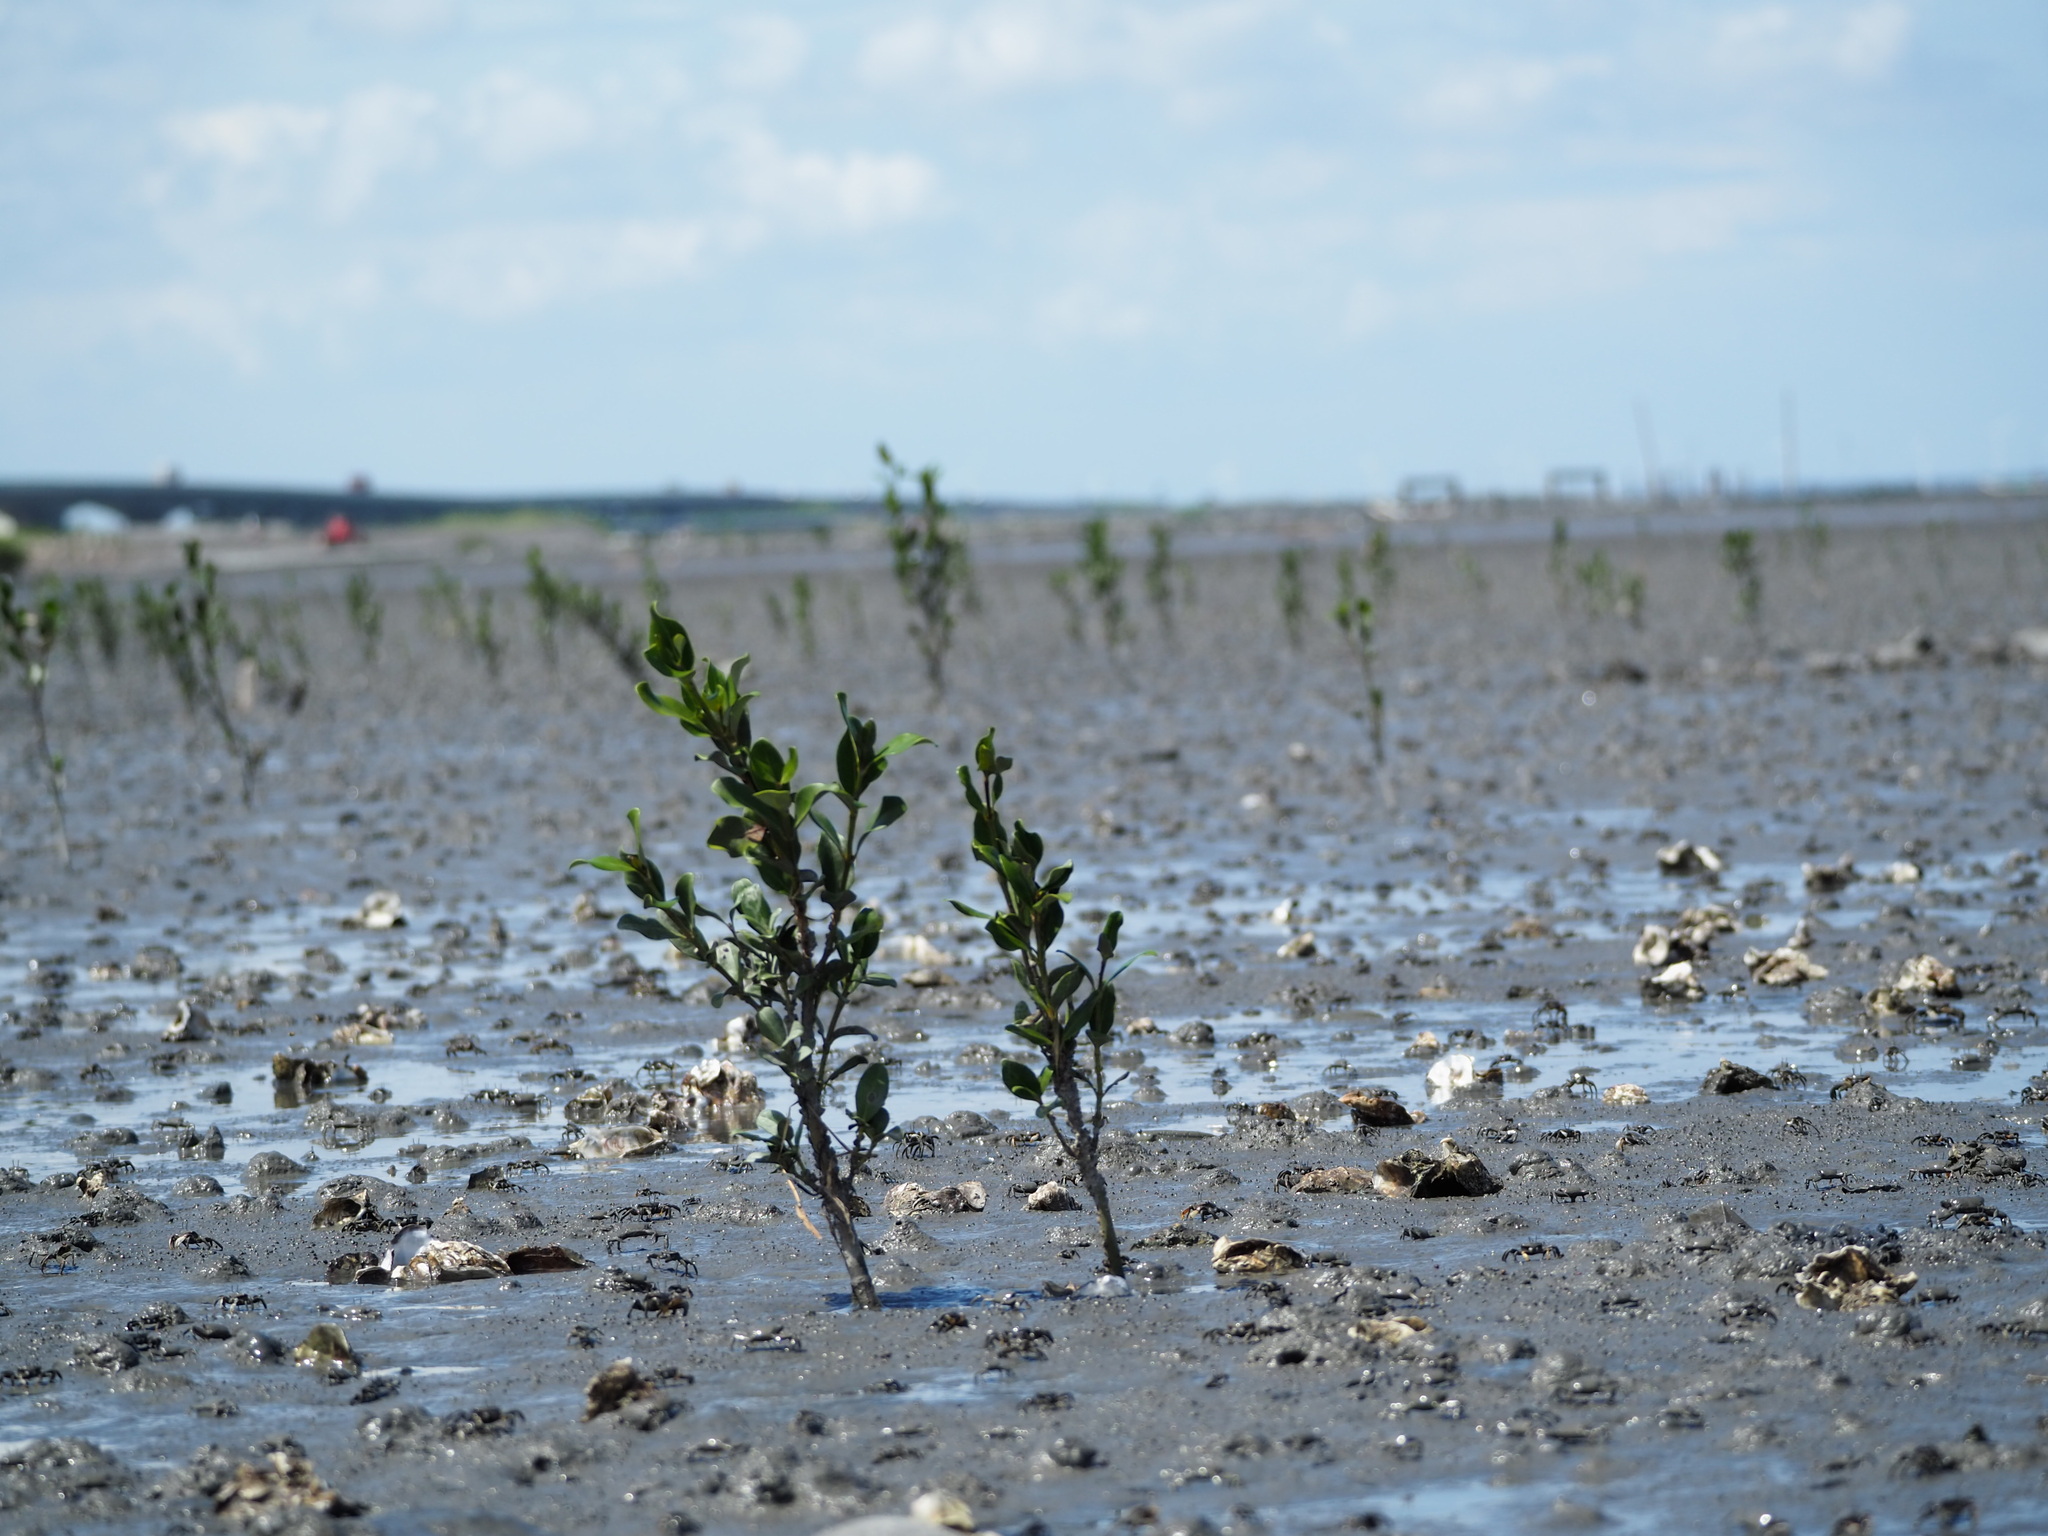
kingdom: Plantae
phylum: Tracheophyta
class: Magnoliopsida
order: Lamiales
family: Acanthaceae
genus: Avicennia
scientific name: Avicennia marina
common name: Gray mangrove
